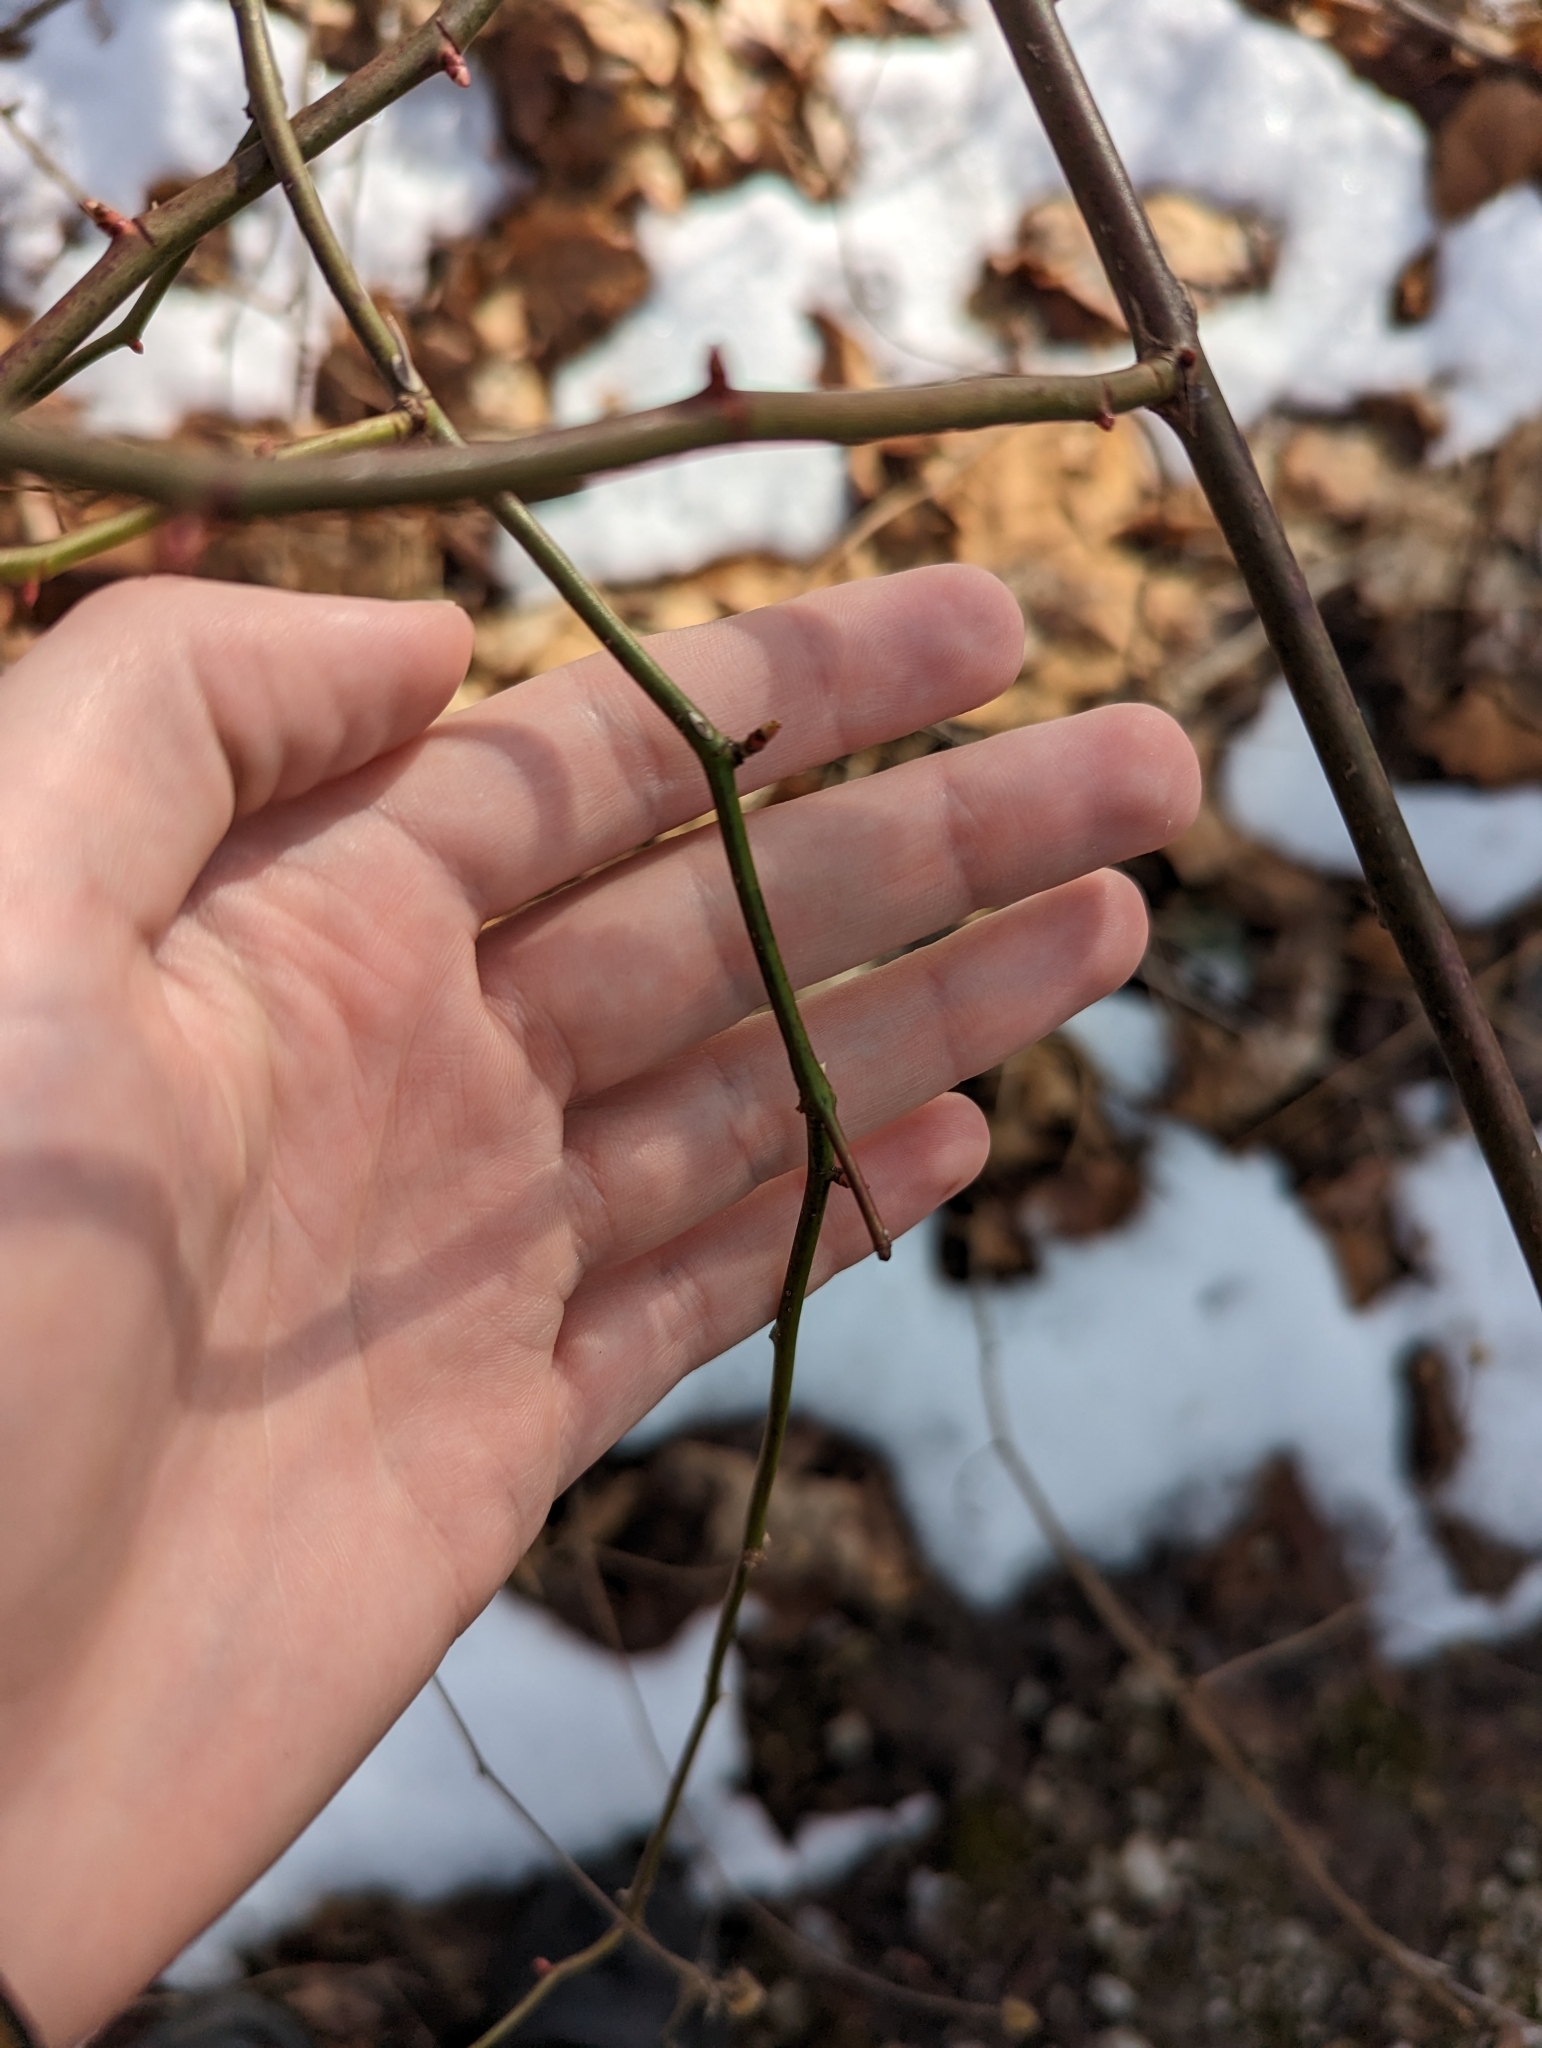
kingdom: Plantae
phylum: Tracheophyta
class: Magnoliopsida
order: Rosales
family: Rosaceae
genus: Rosa
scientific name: Rosa multiflora
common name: Multiflora rose
